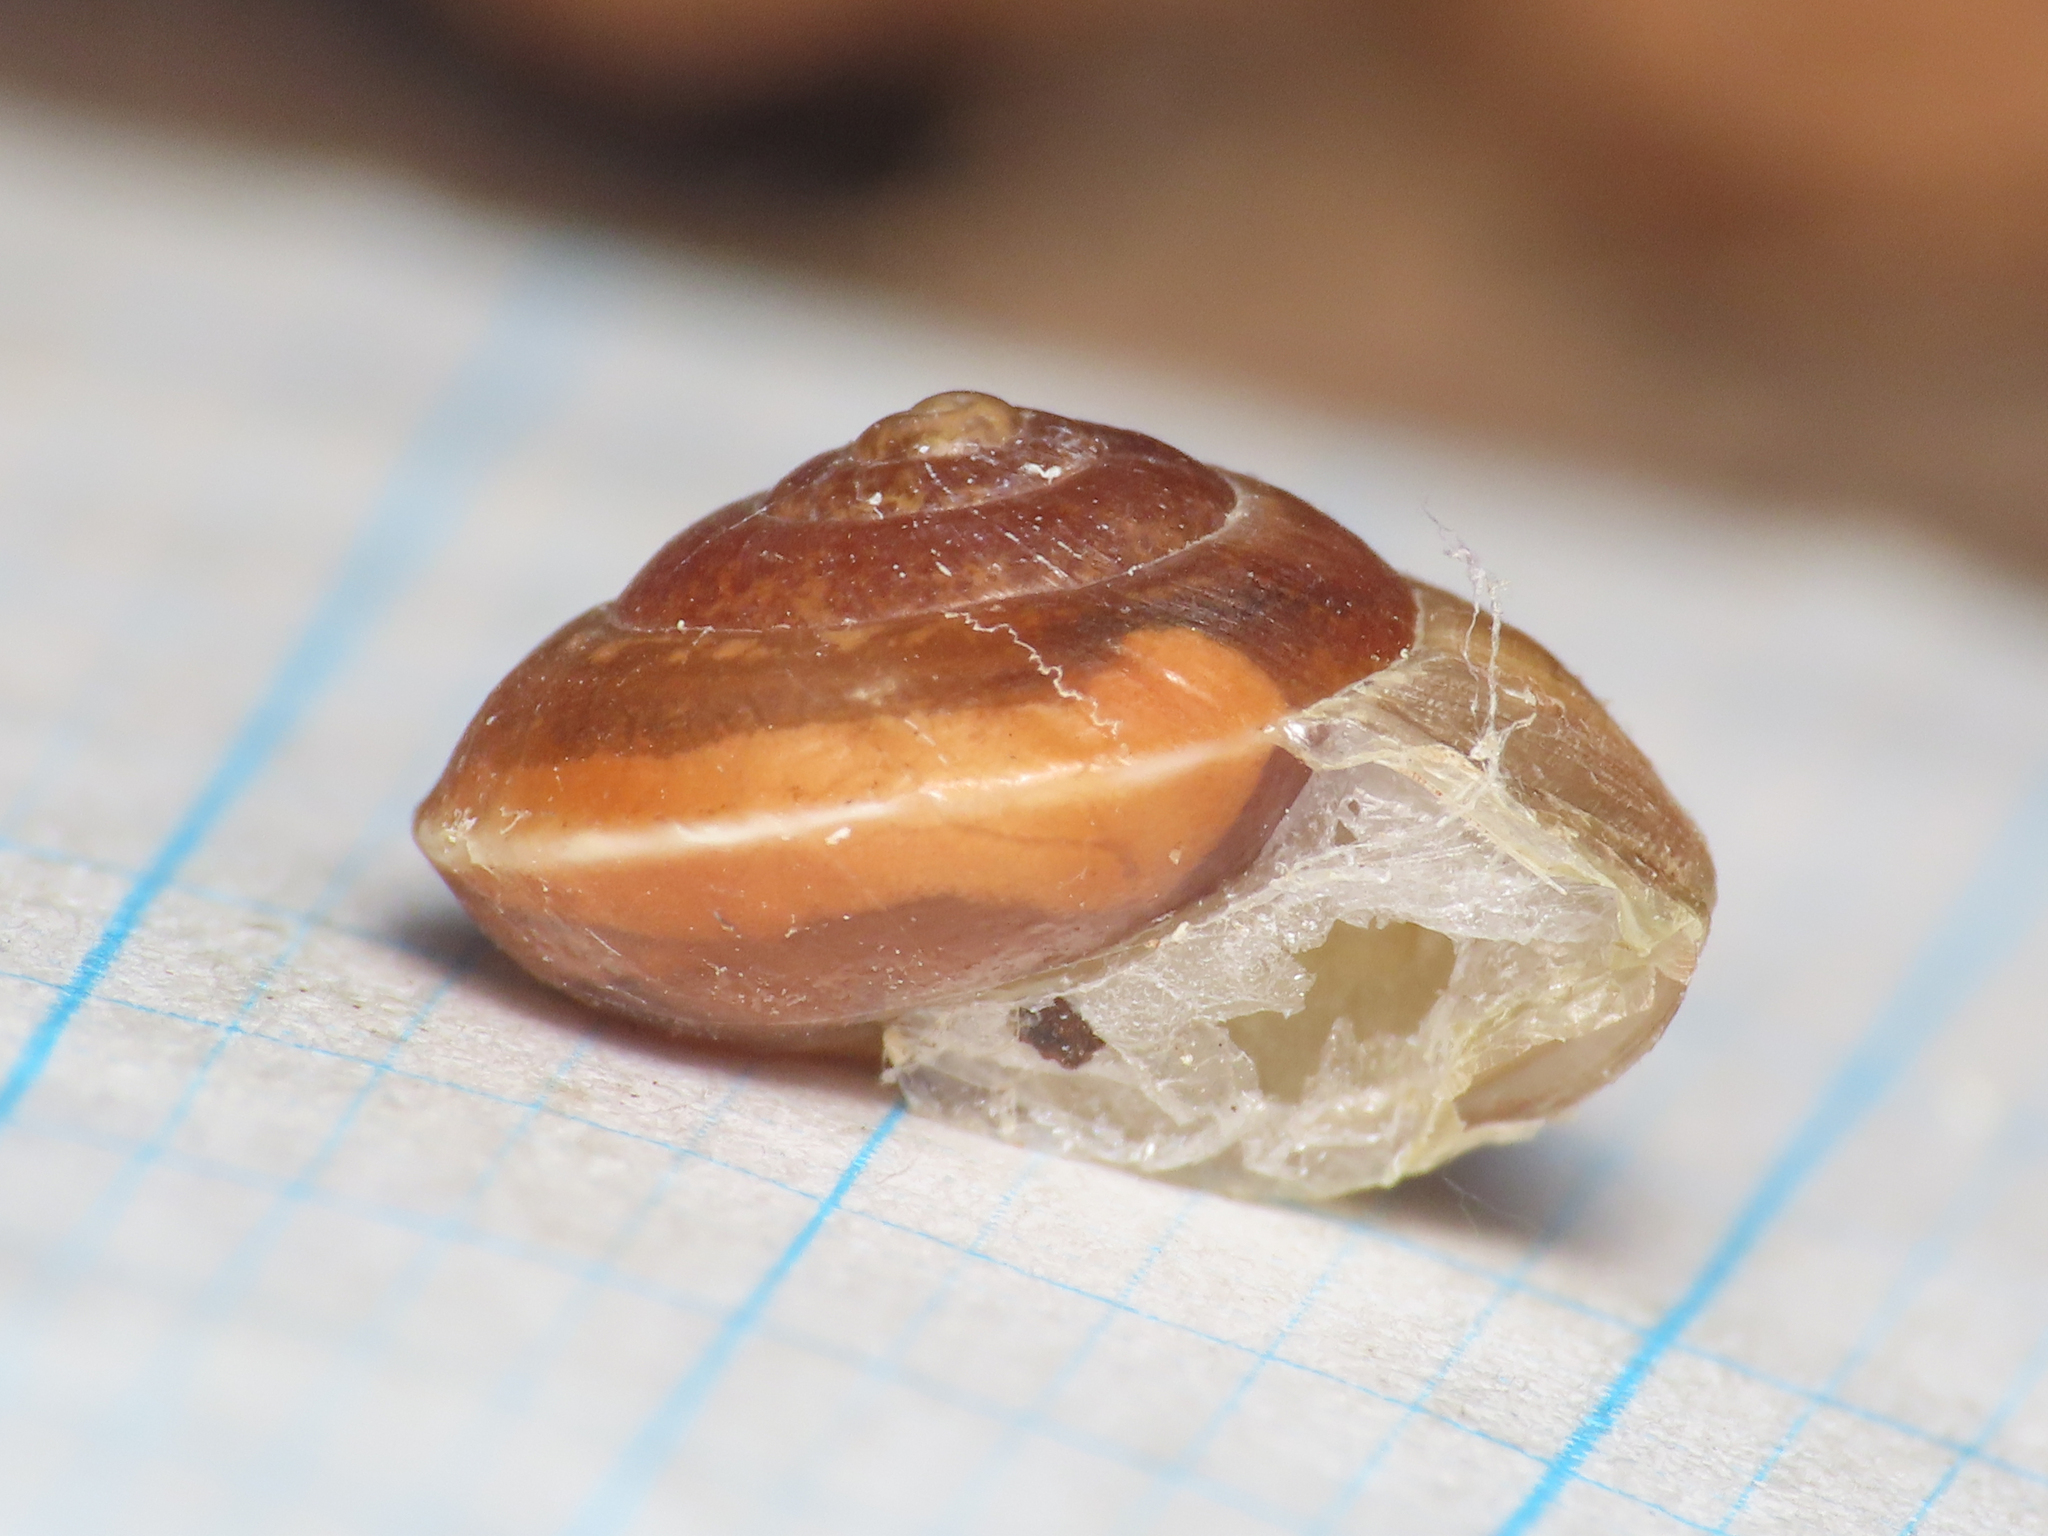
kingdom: Animalia
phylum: Mollusca
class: Gastropoda
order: Stylommatophora
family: Hygromiidae
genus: Hygromia
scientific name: Hygromia cinctella
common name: Girdled snail
